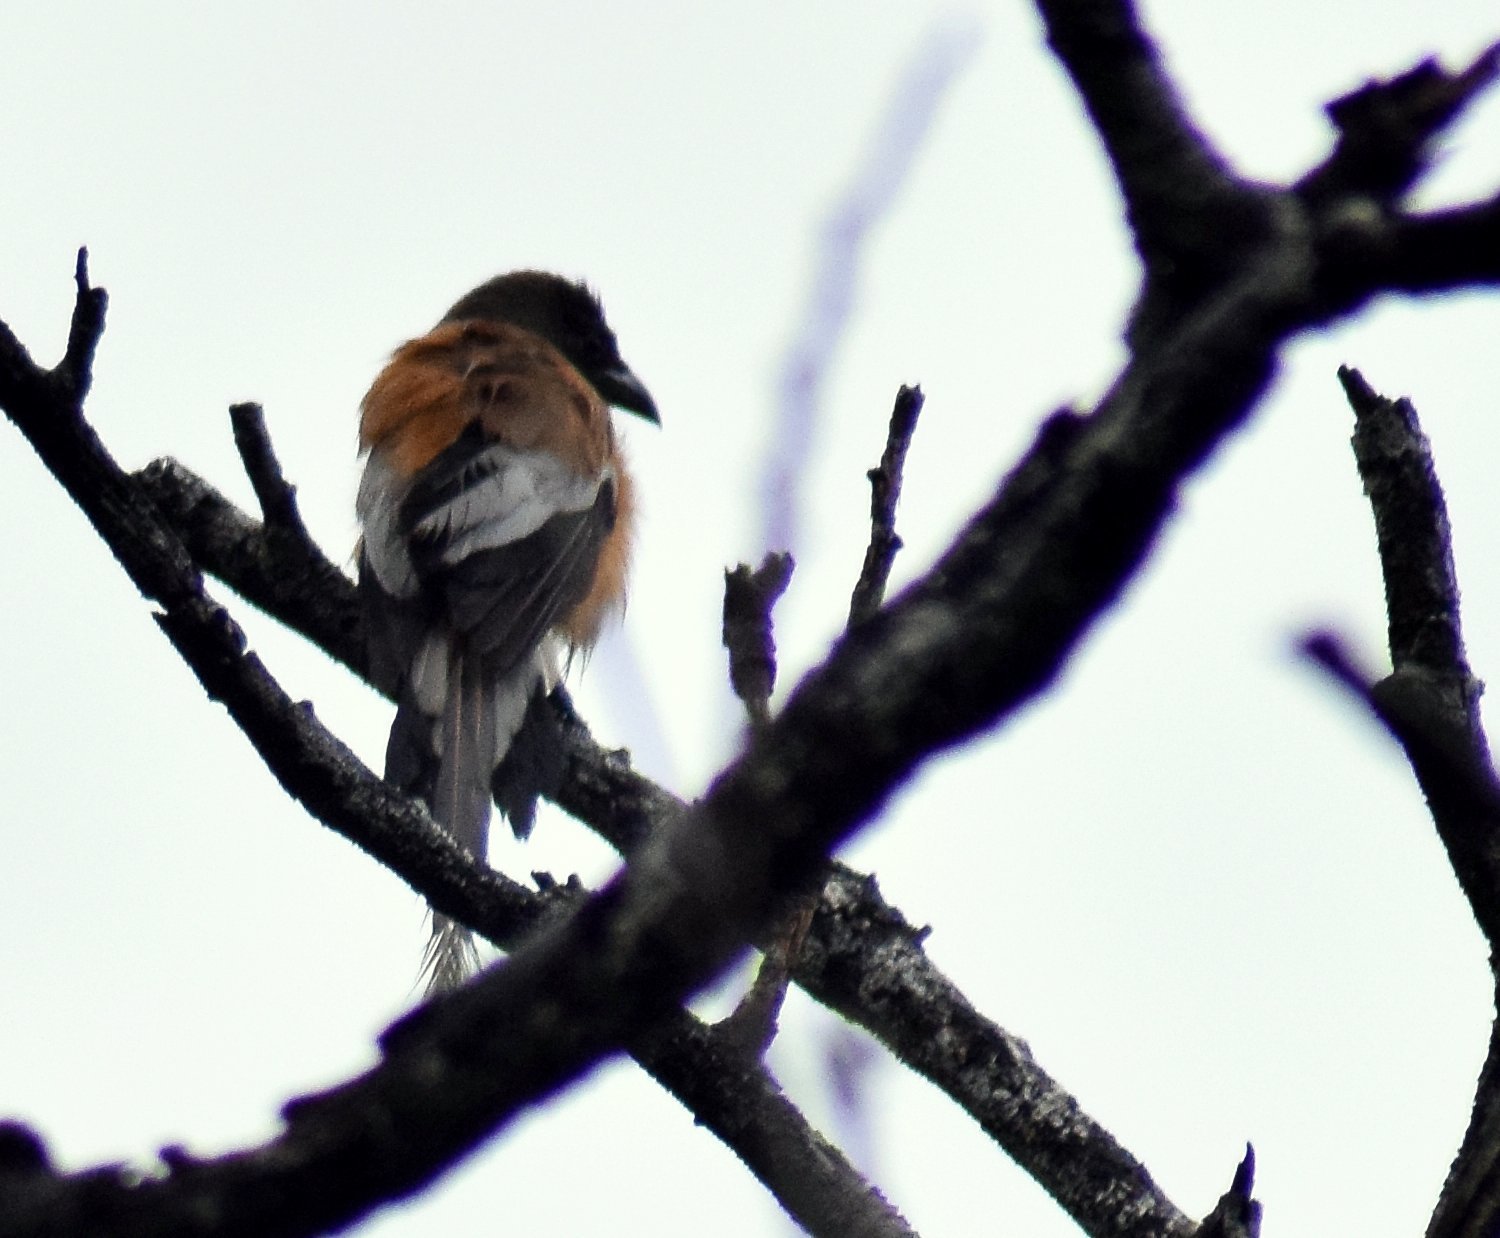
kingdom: Animalia
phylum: Chordata
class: Aves
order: Passeriformes
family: Corvidae
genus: Dendrocitta
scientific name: Dendrocitta vagabunda
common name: Rufous treepie
